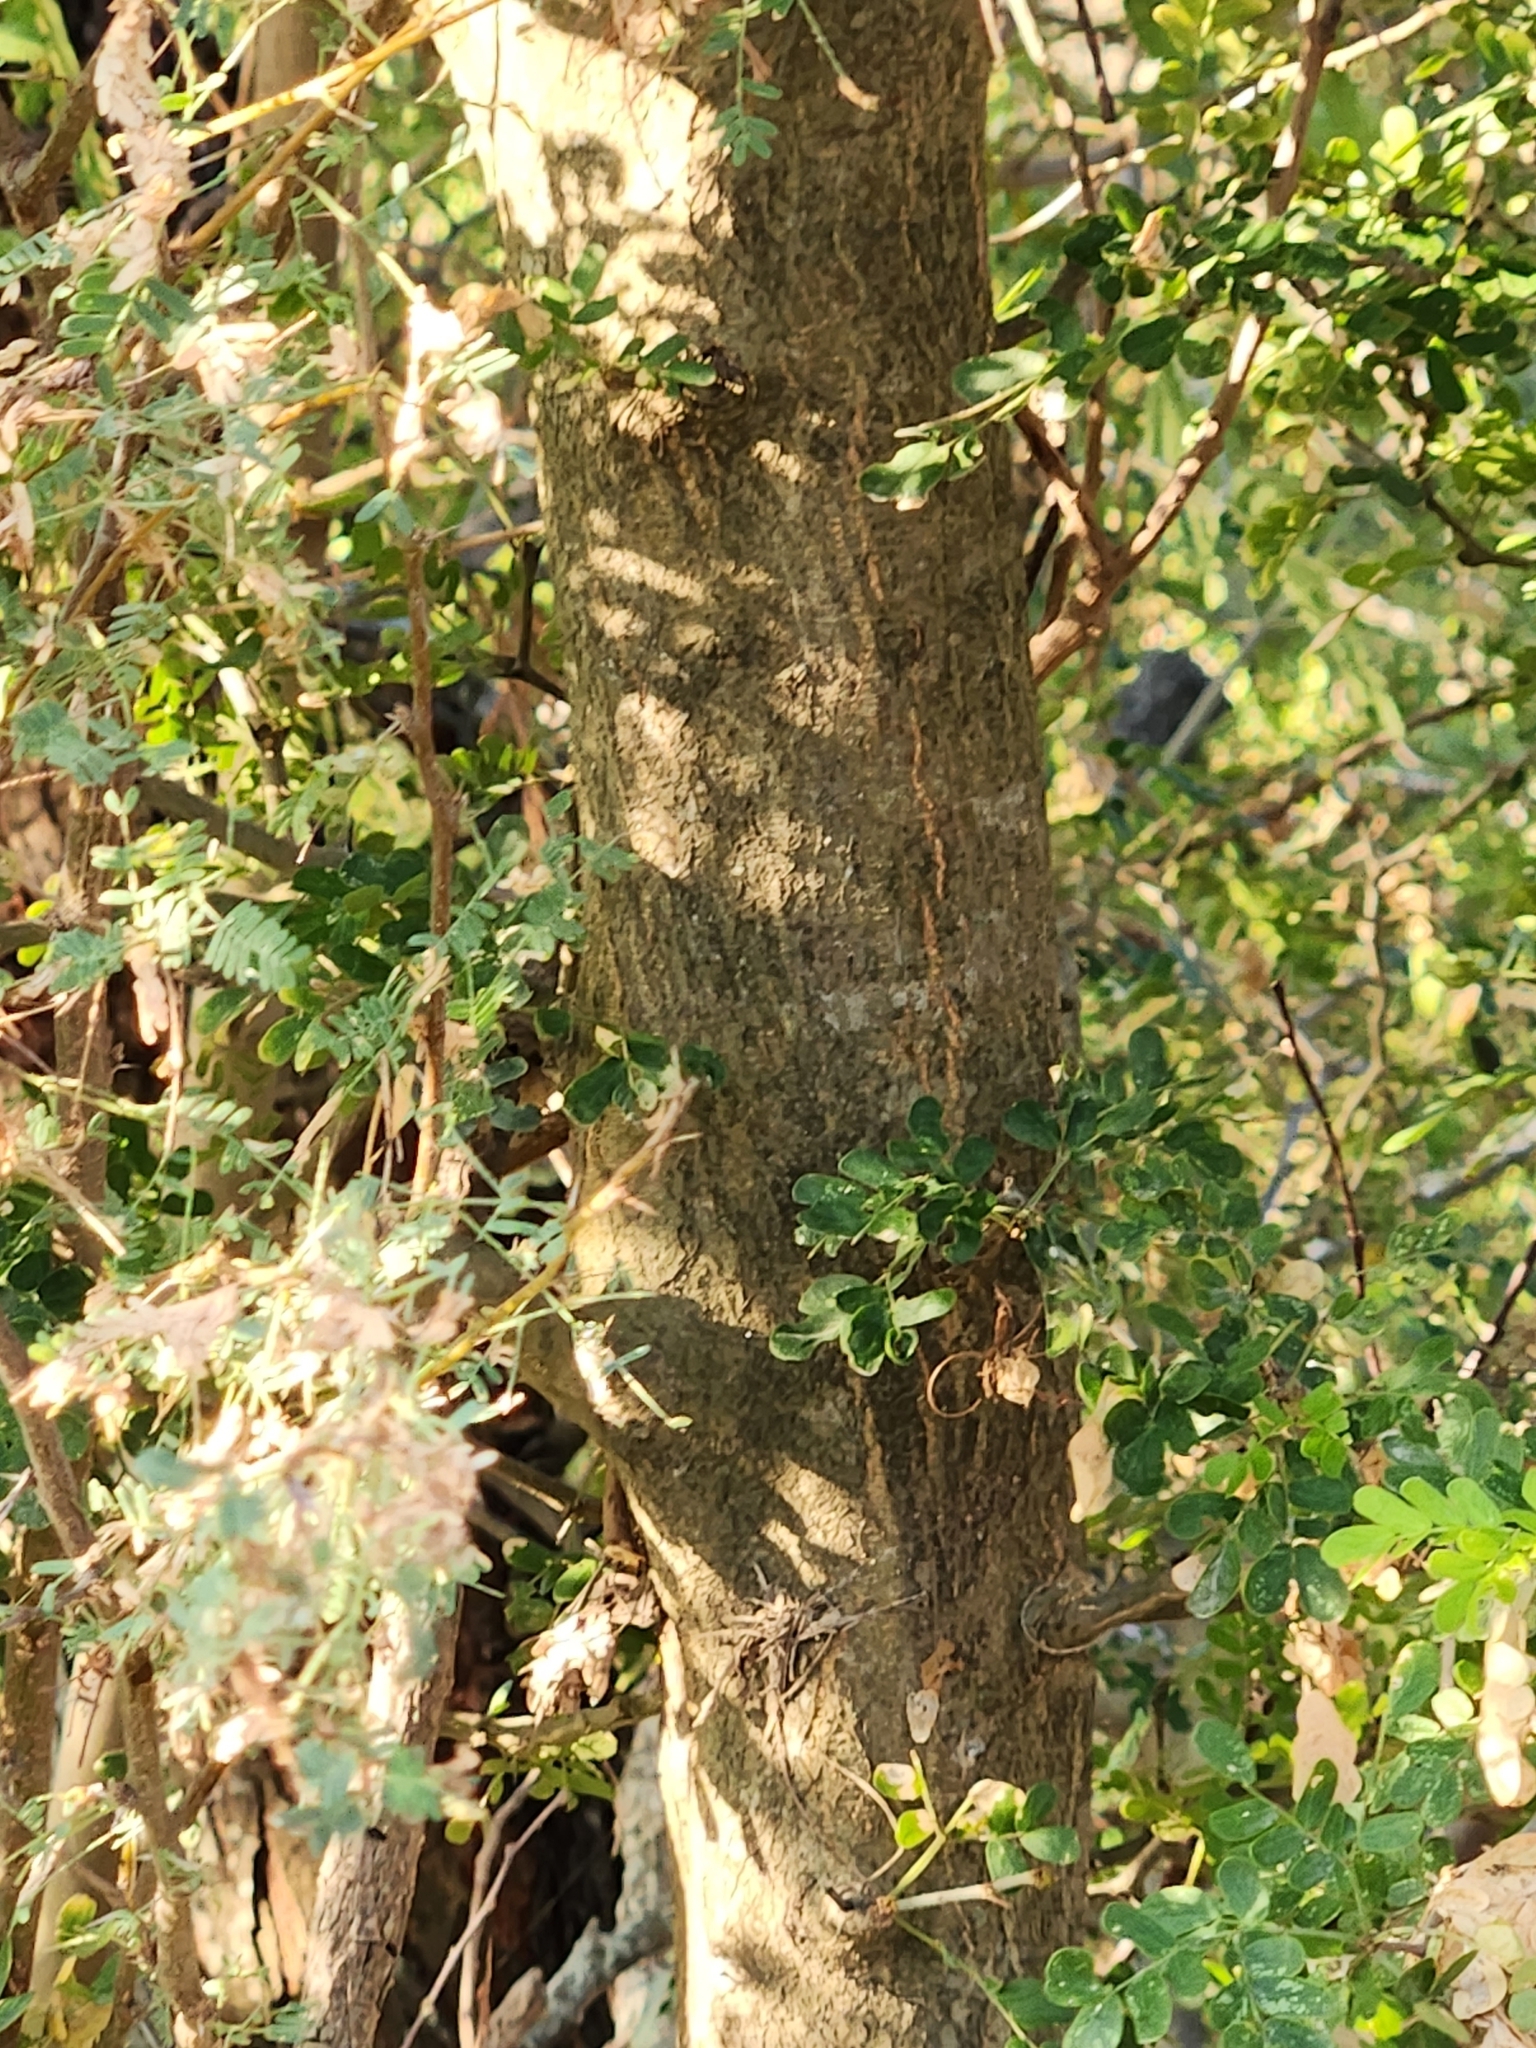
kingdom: Plantae
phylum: Tracheophyta
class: Magnoliopsida
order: Fabales
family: Fabaceae
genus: Ebenopsis
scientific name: Ebenopsis ebano
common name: Ebony blackbead
